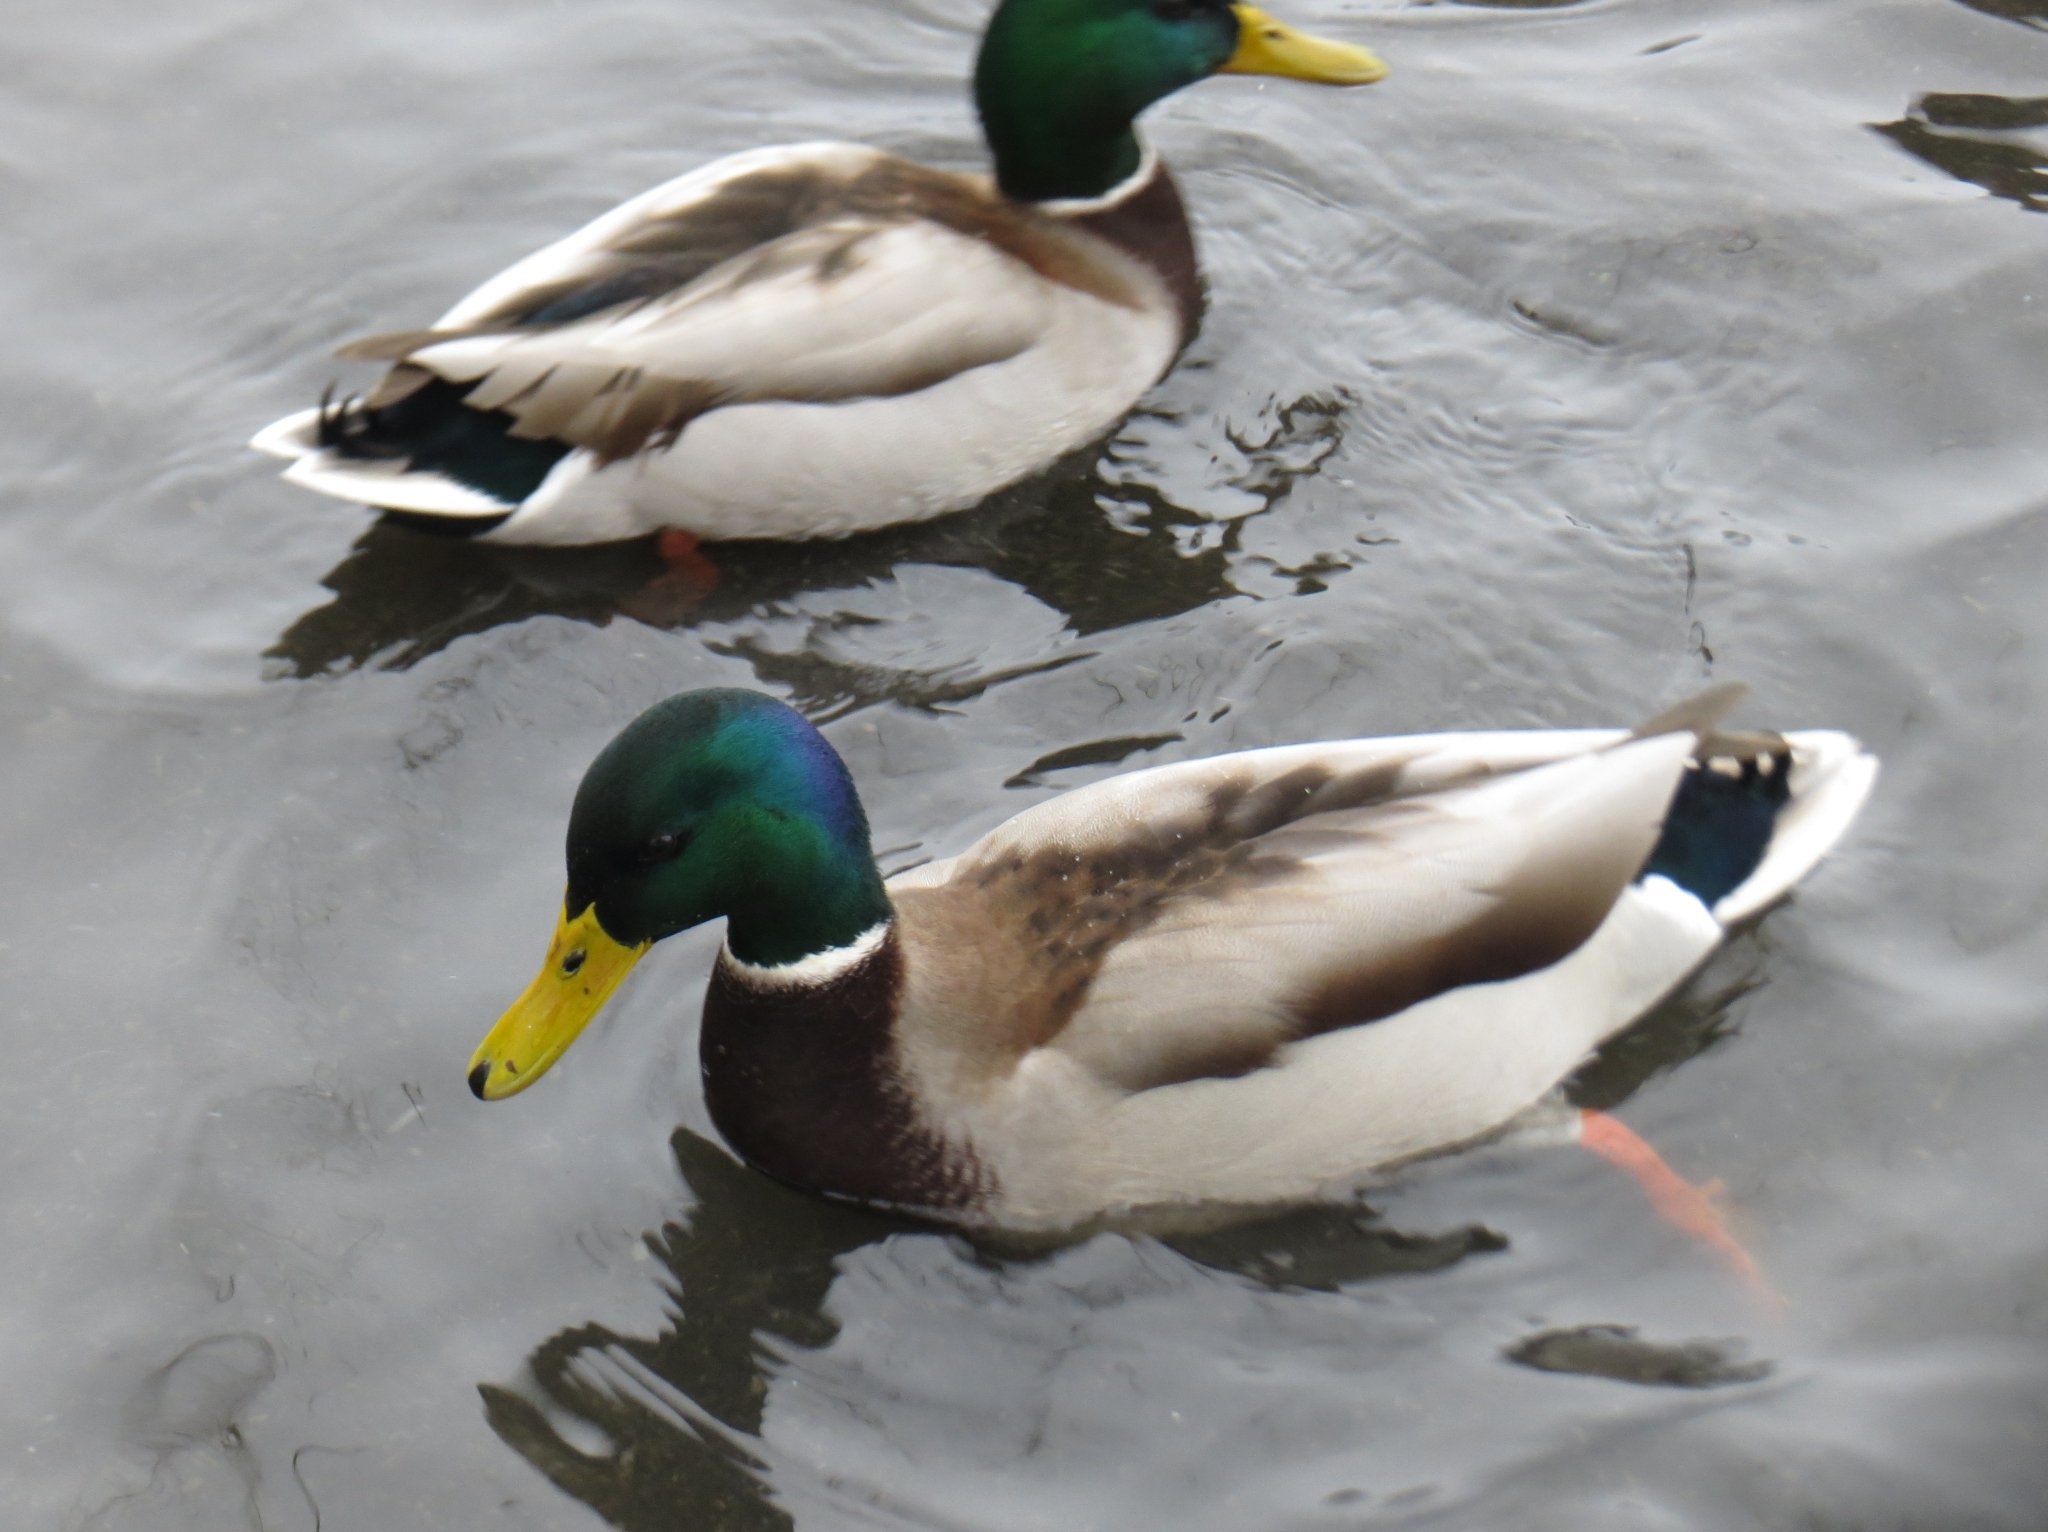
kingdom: Animalia
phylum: Chordata
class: Aves
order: Anseriformes
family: Anatidae
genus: Anas
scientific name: Anas platyrhynchos
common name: Mallard
